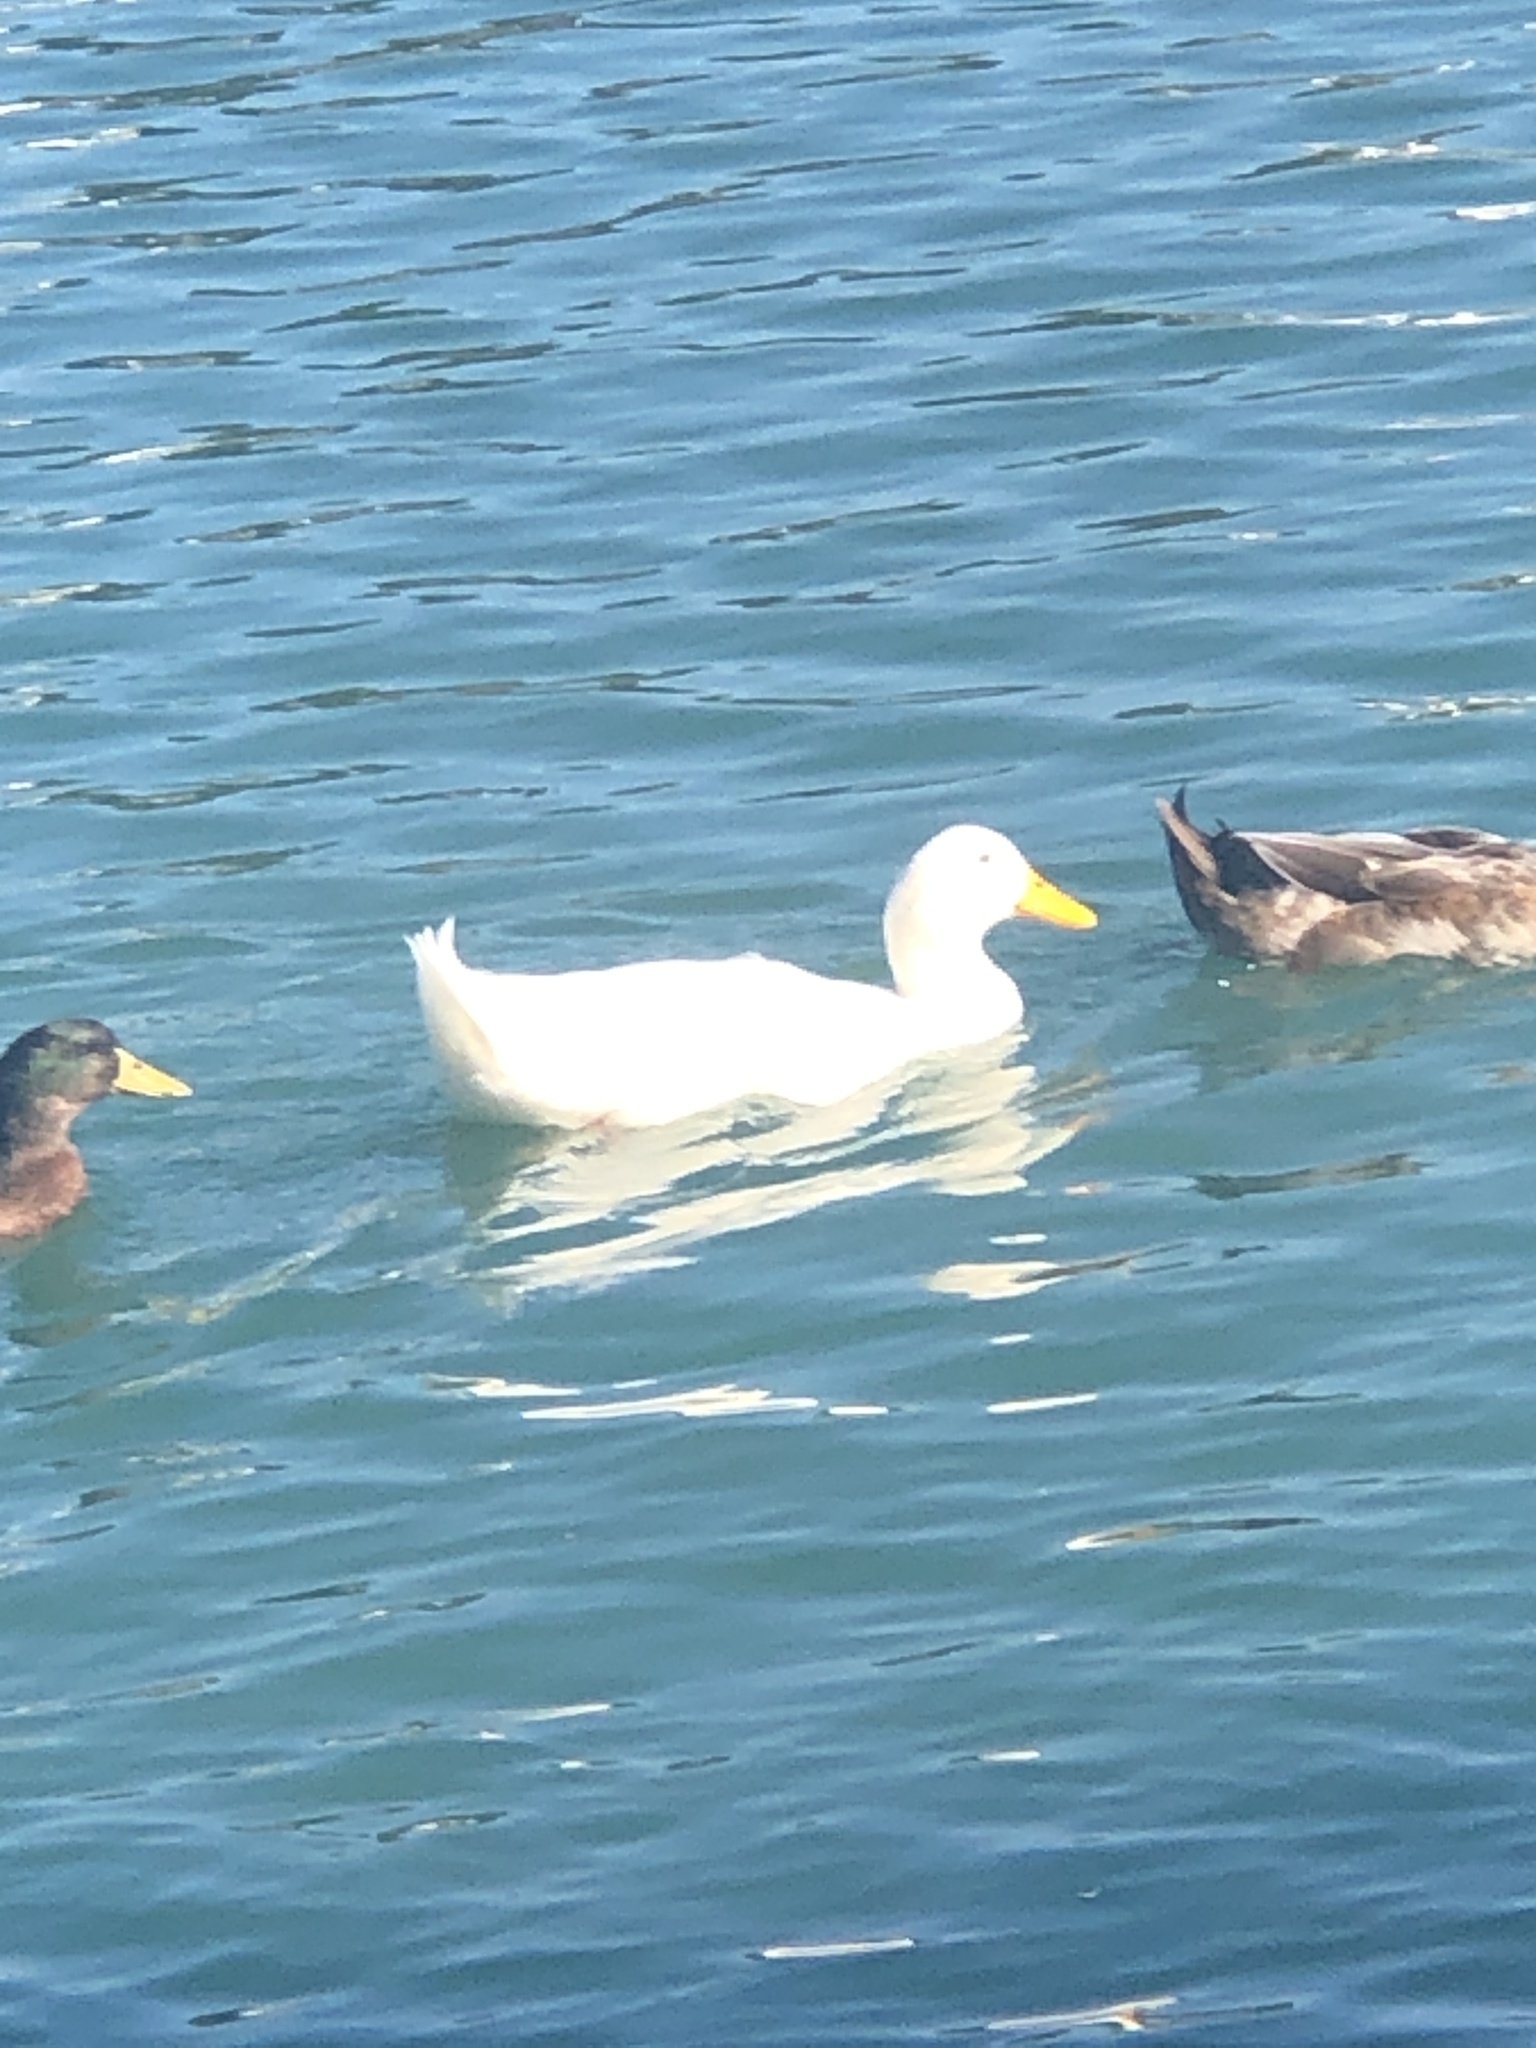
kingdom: Animalia
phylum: Chordata
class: Aves
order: Anseriformes
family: Anatidae
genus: Anas
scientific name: Anas platyrhynchos
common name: Mallard
